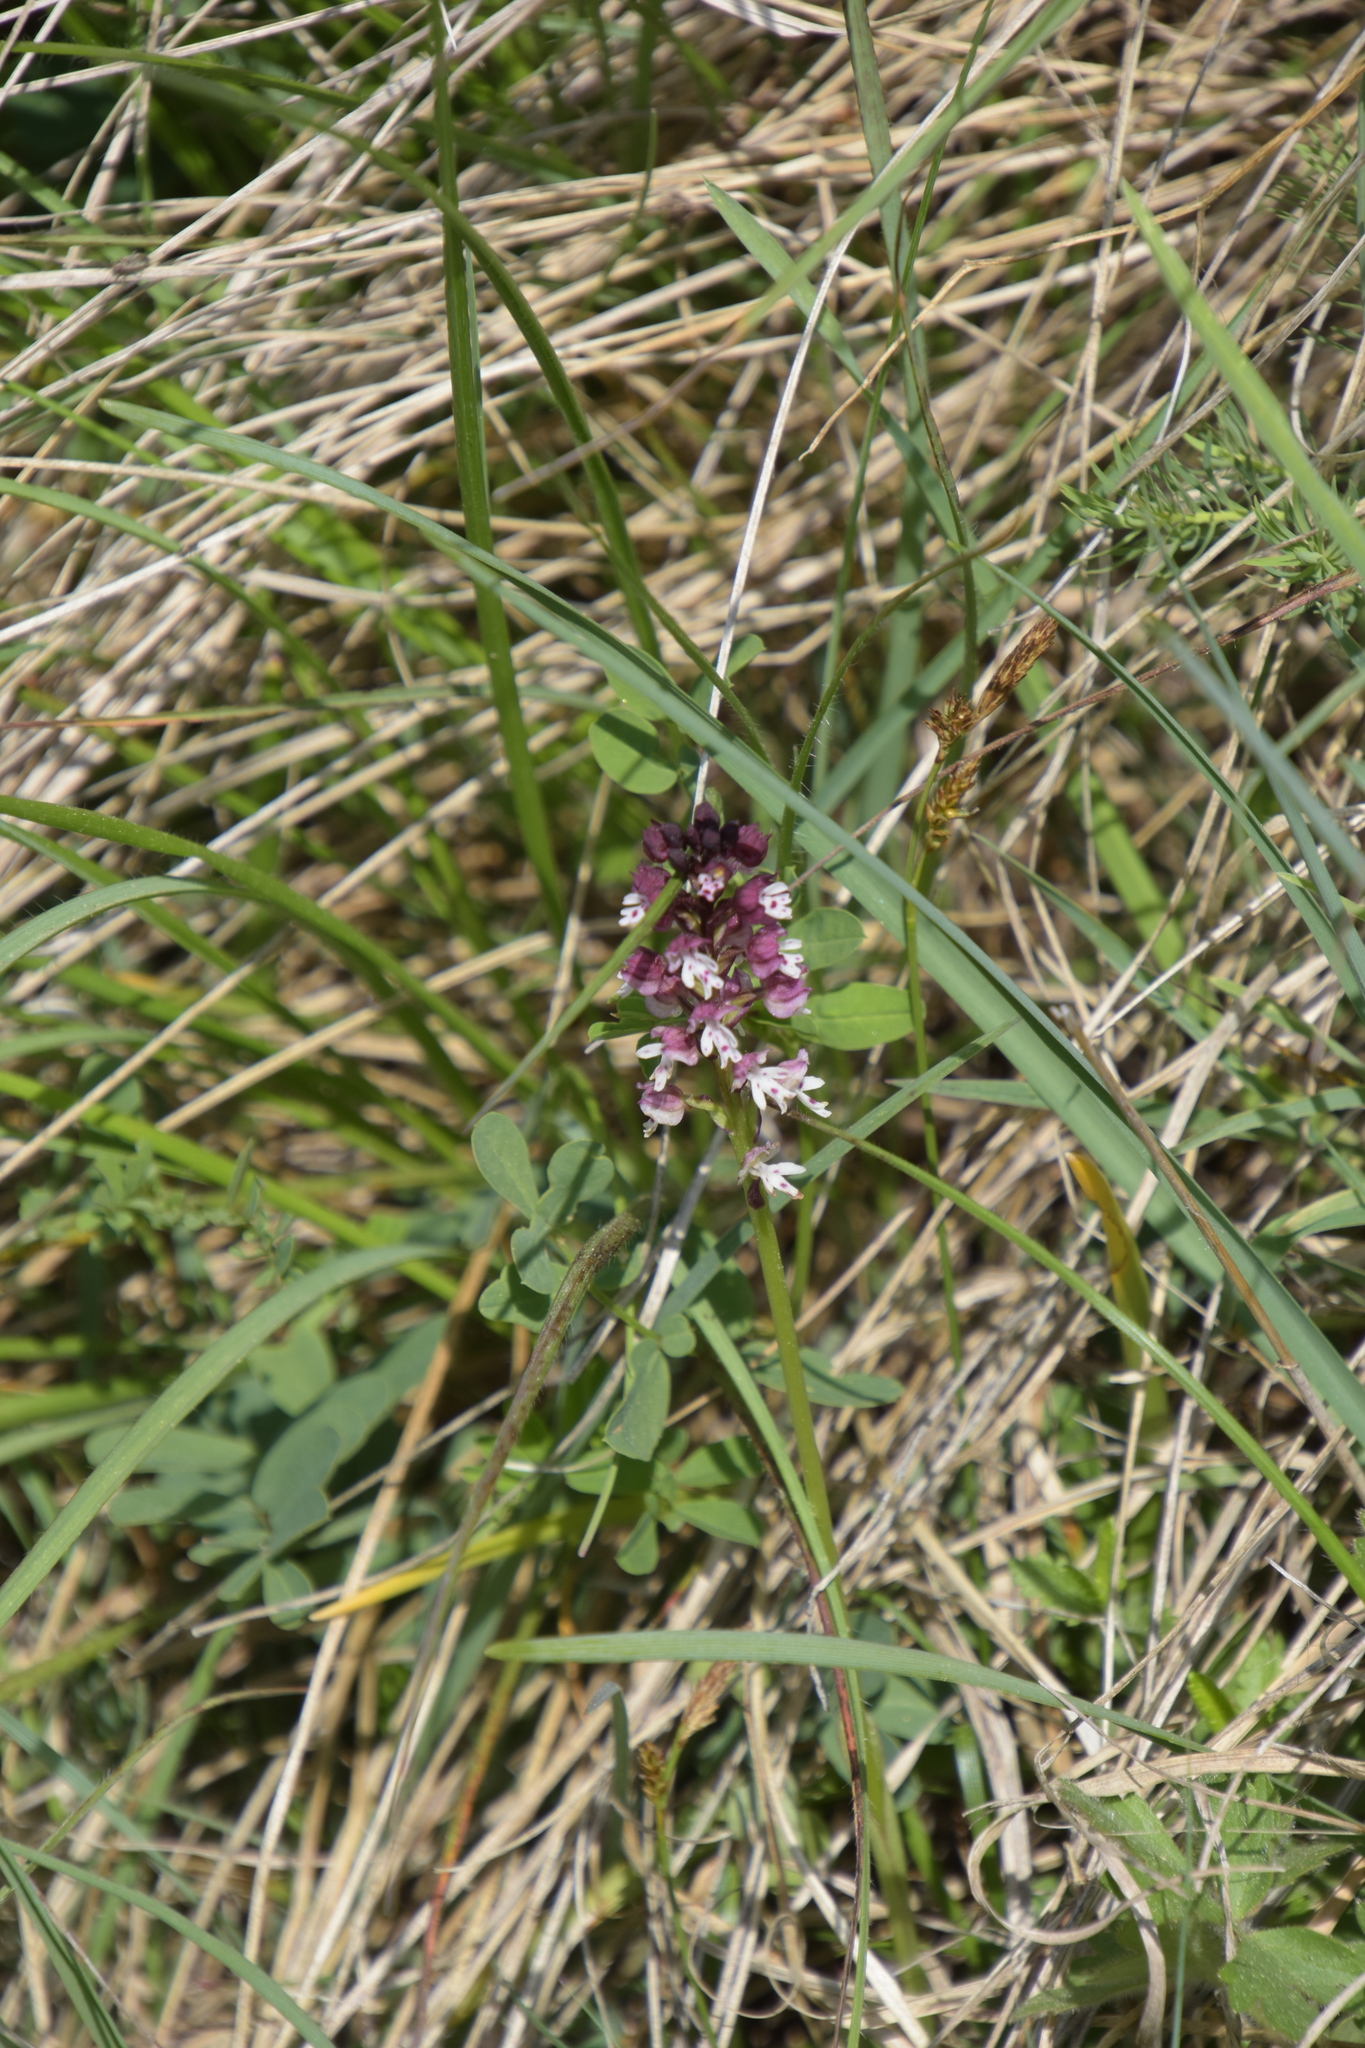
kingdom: Plantae
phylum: Tracheophyta
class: Liliopsida
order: Asparagales
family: Orchidaceae
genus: Neotinea
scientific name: Neotinea ustulata
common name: Burnt orchid
